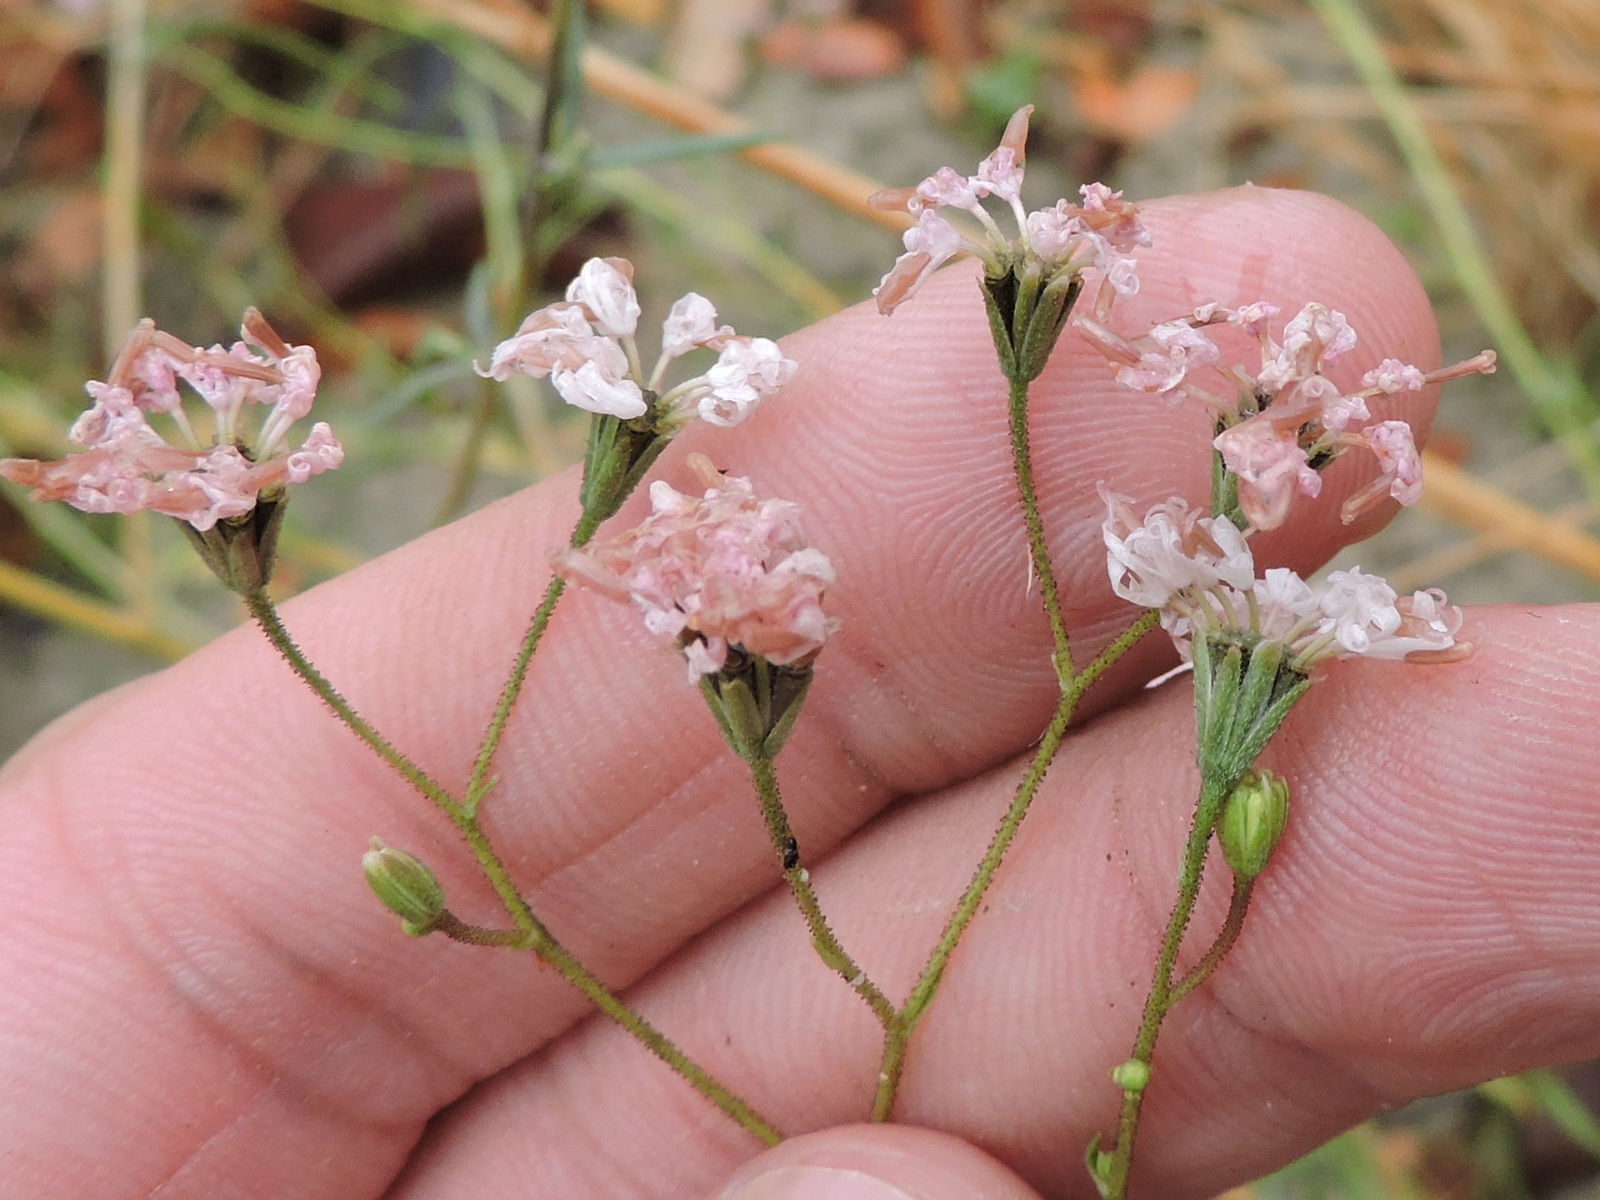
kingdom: Plantae
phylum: Tracheophyta
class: Magnoliopsida
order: Asterales
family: Asteraceae
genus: Palafoxia
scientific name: Palafoxia callosa
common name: Small palafox
